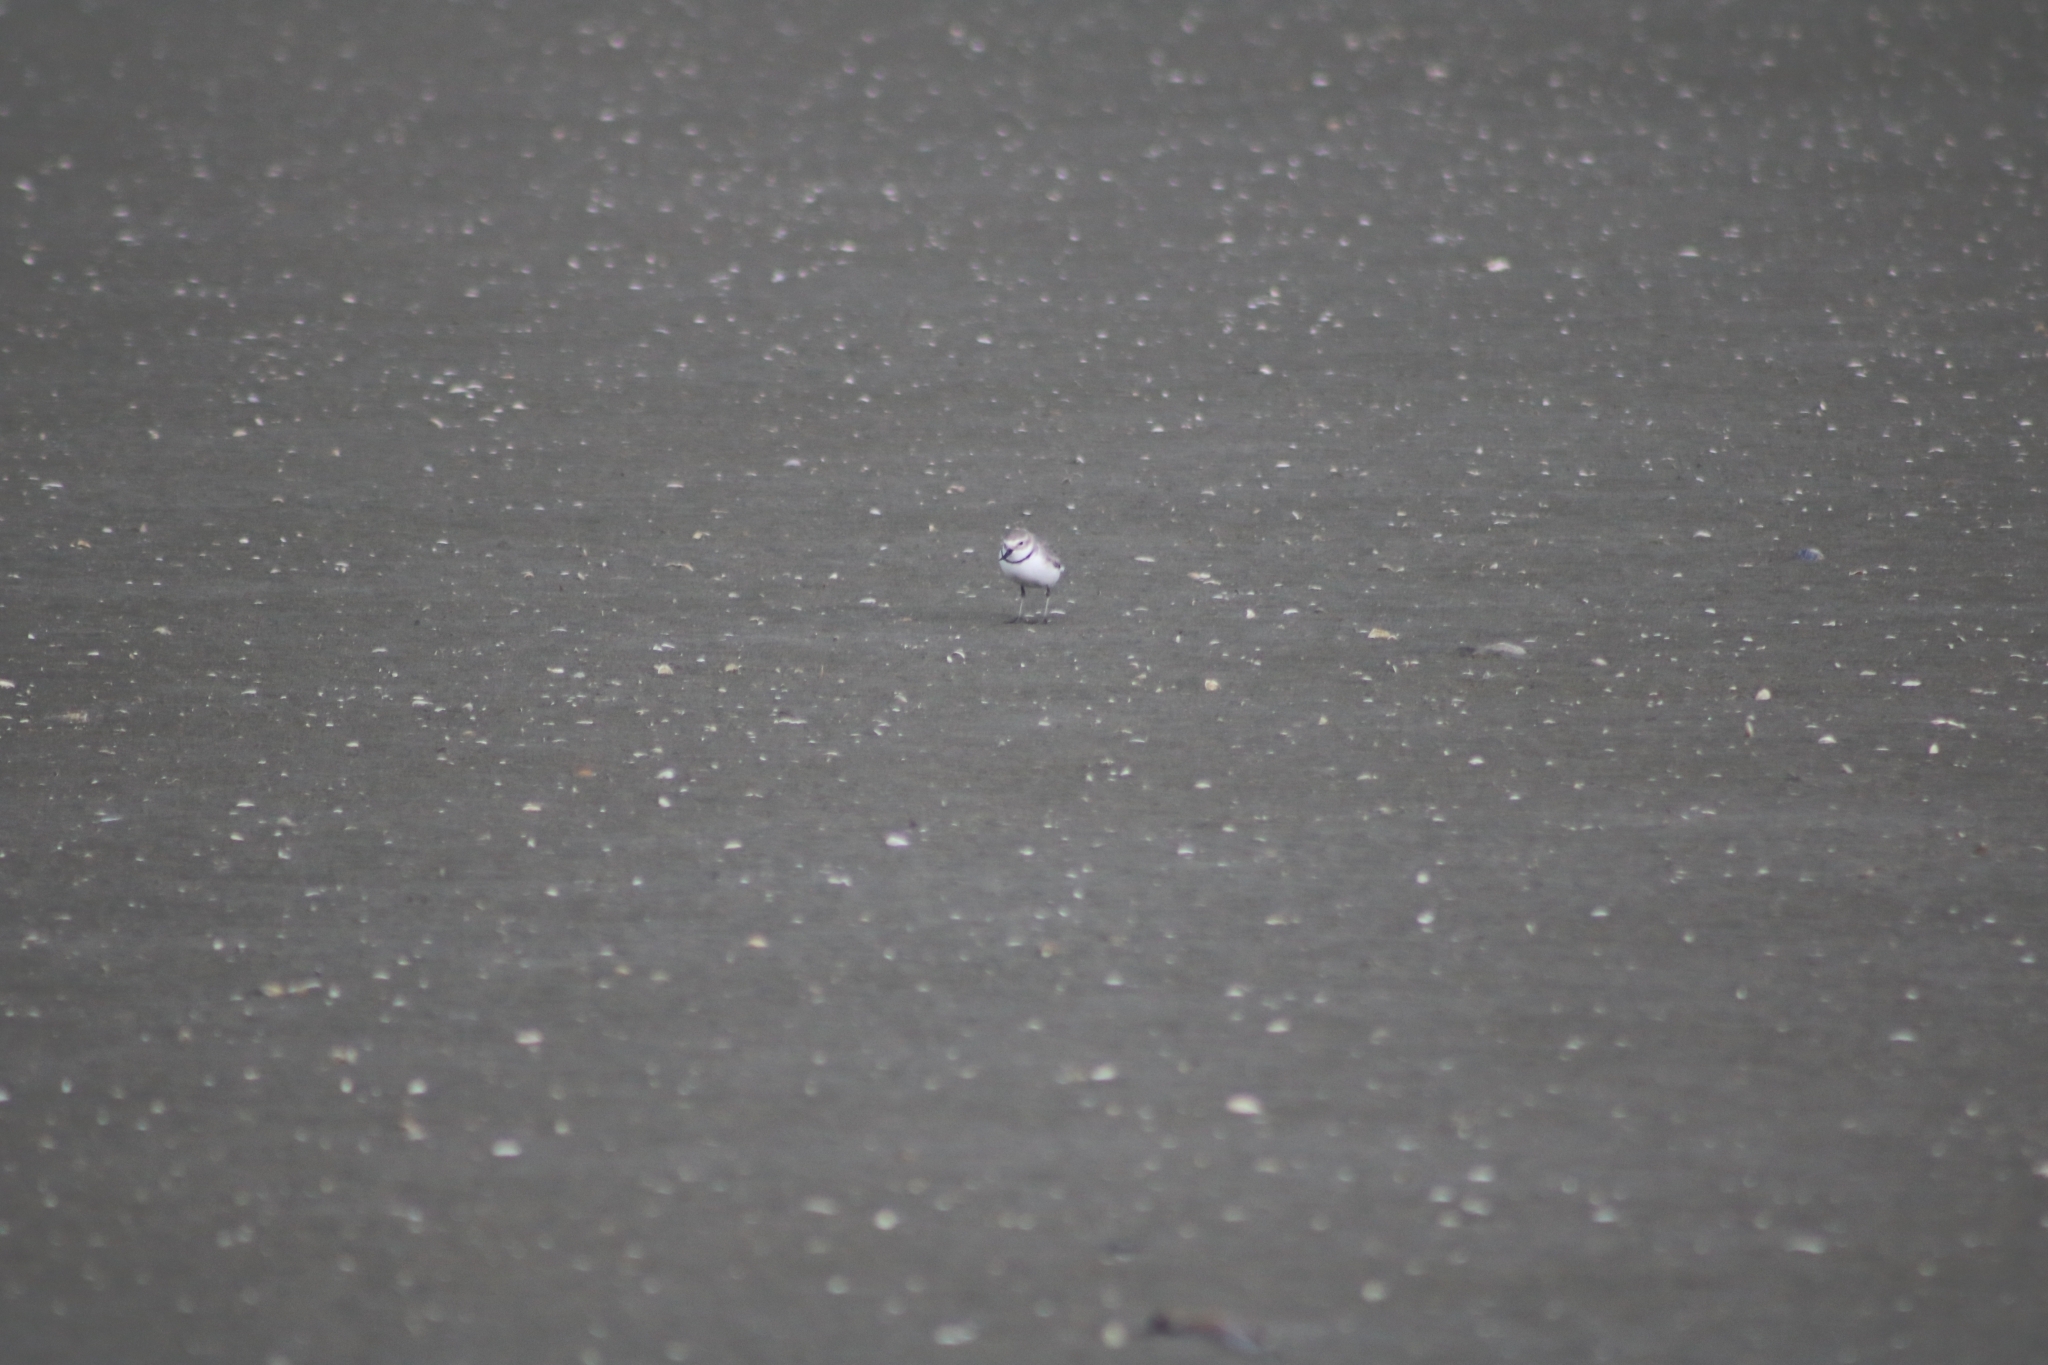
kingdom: Animalia
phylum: Chordata
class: Aves
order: Charadriiformes
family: Charadriidae
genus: Anarhynchus
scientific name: Anarhynchus frontalis
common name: Wrybill
